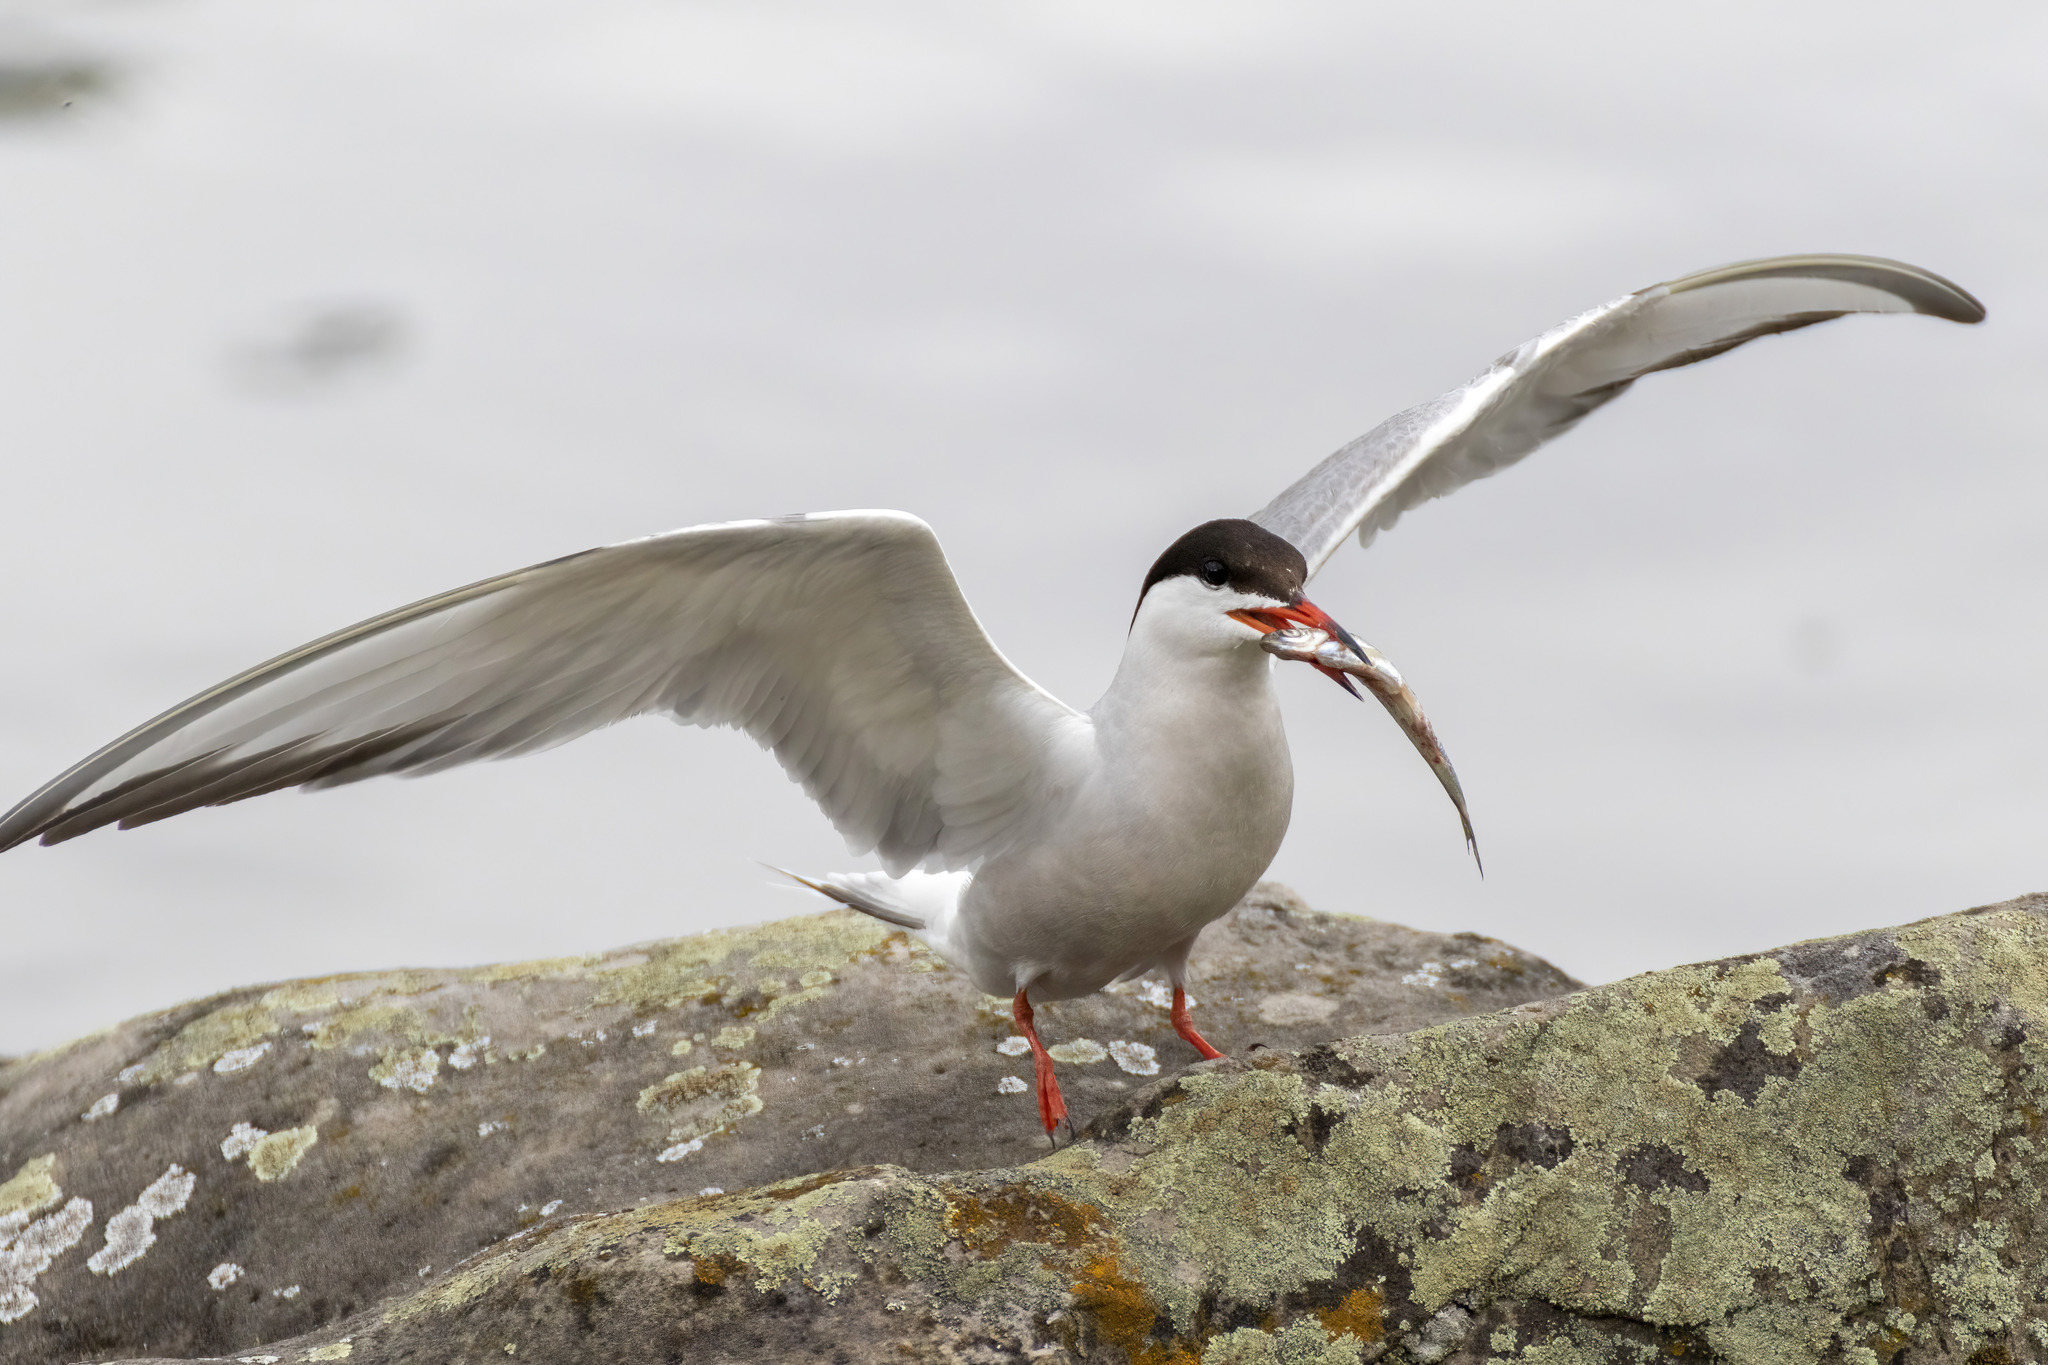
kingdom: Animalia
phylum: Chordata
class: Aves
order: Charadriiformes
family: Laridae
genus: Sterna
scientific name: Sterna hirundo
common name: Common tern
